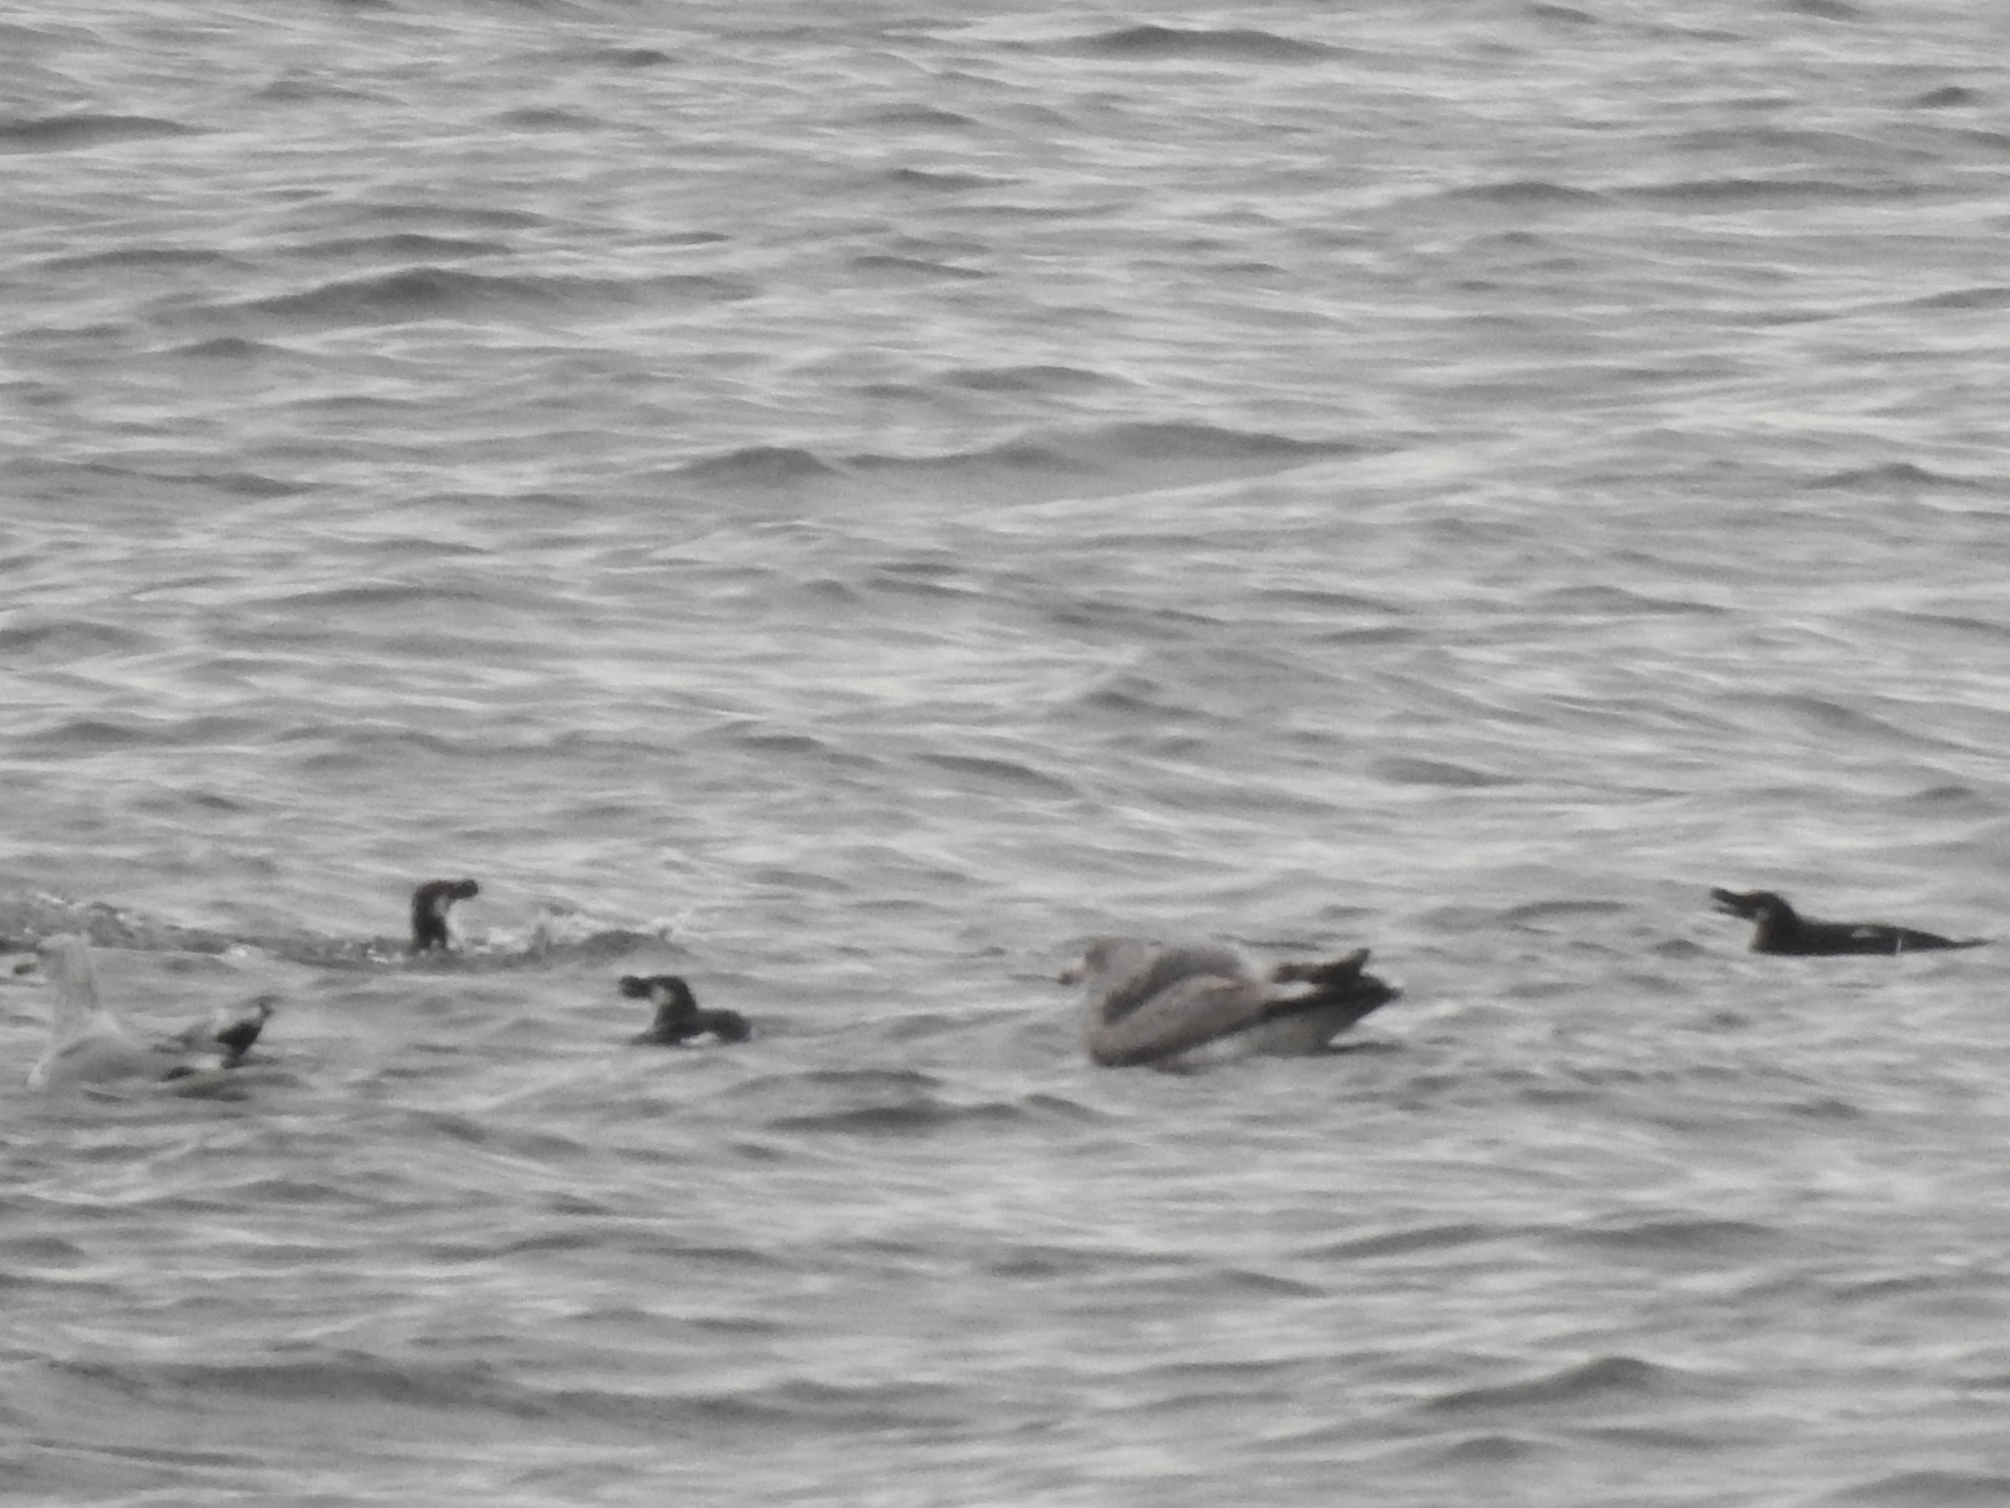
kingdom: Animalia
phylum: Chordata
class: Aves
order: Charadriiformes
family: Alcidae
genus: Alca
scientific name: Alca torda
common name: Razorbill
